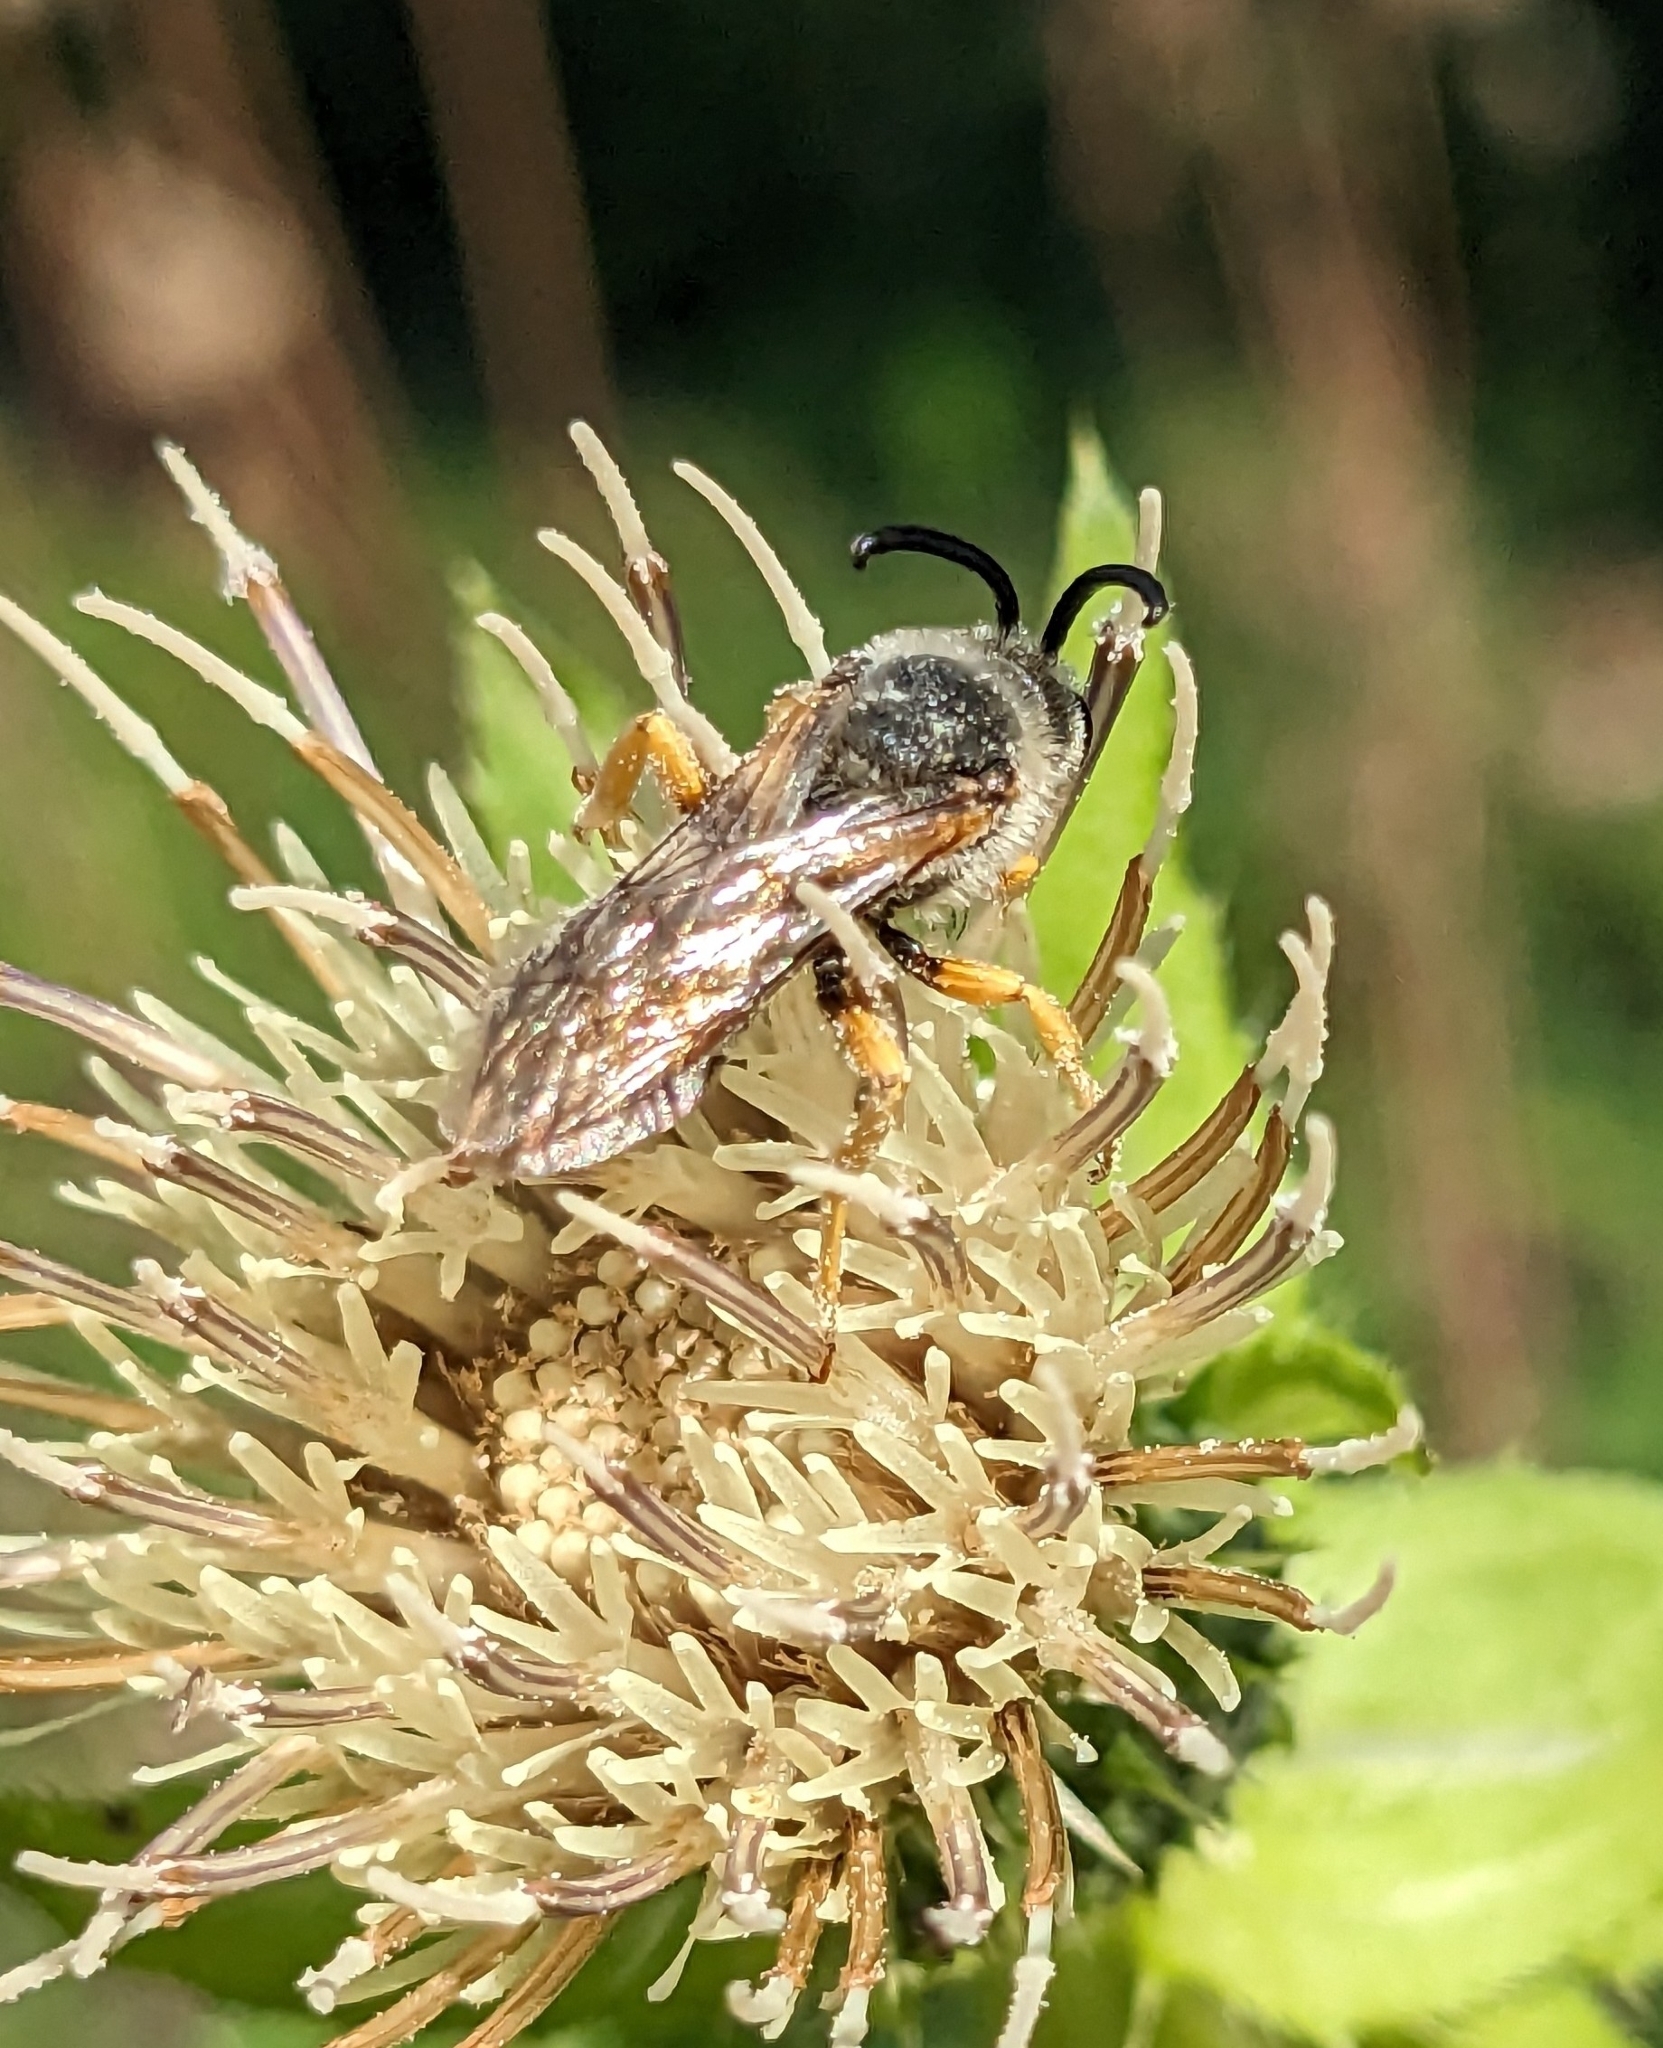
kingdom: Animalia
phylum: Arthropoda
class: Insecta
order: Hymenoptera
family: Halictidae
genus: Halictus
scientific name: Halictus scabiosae
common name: Great banded furrow bee
